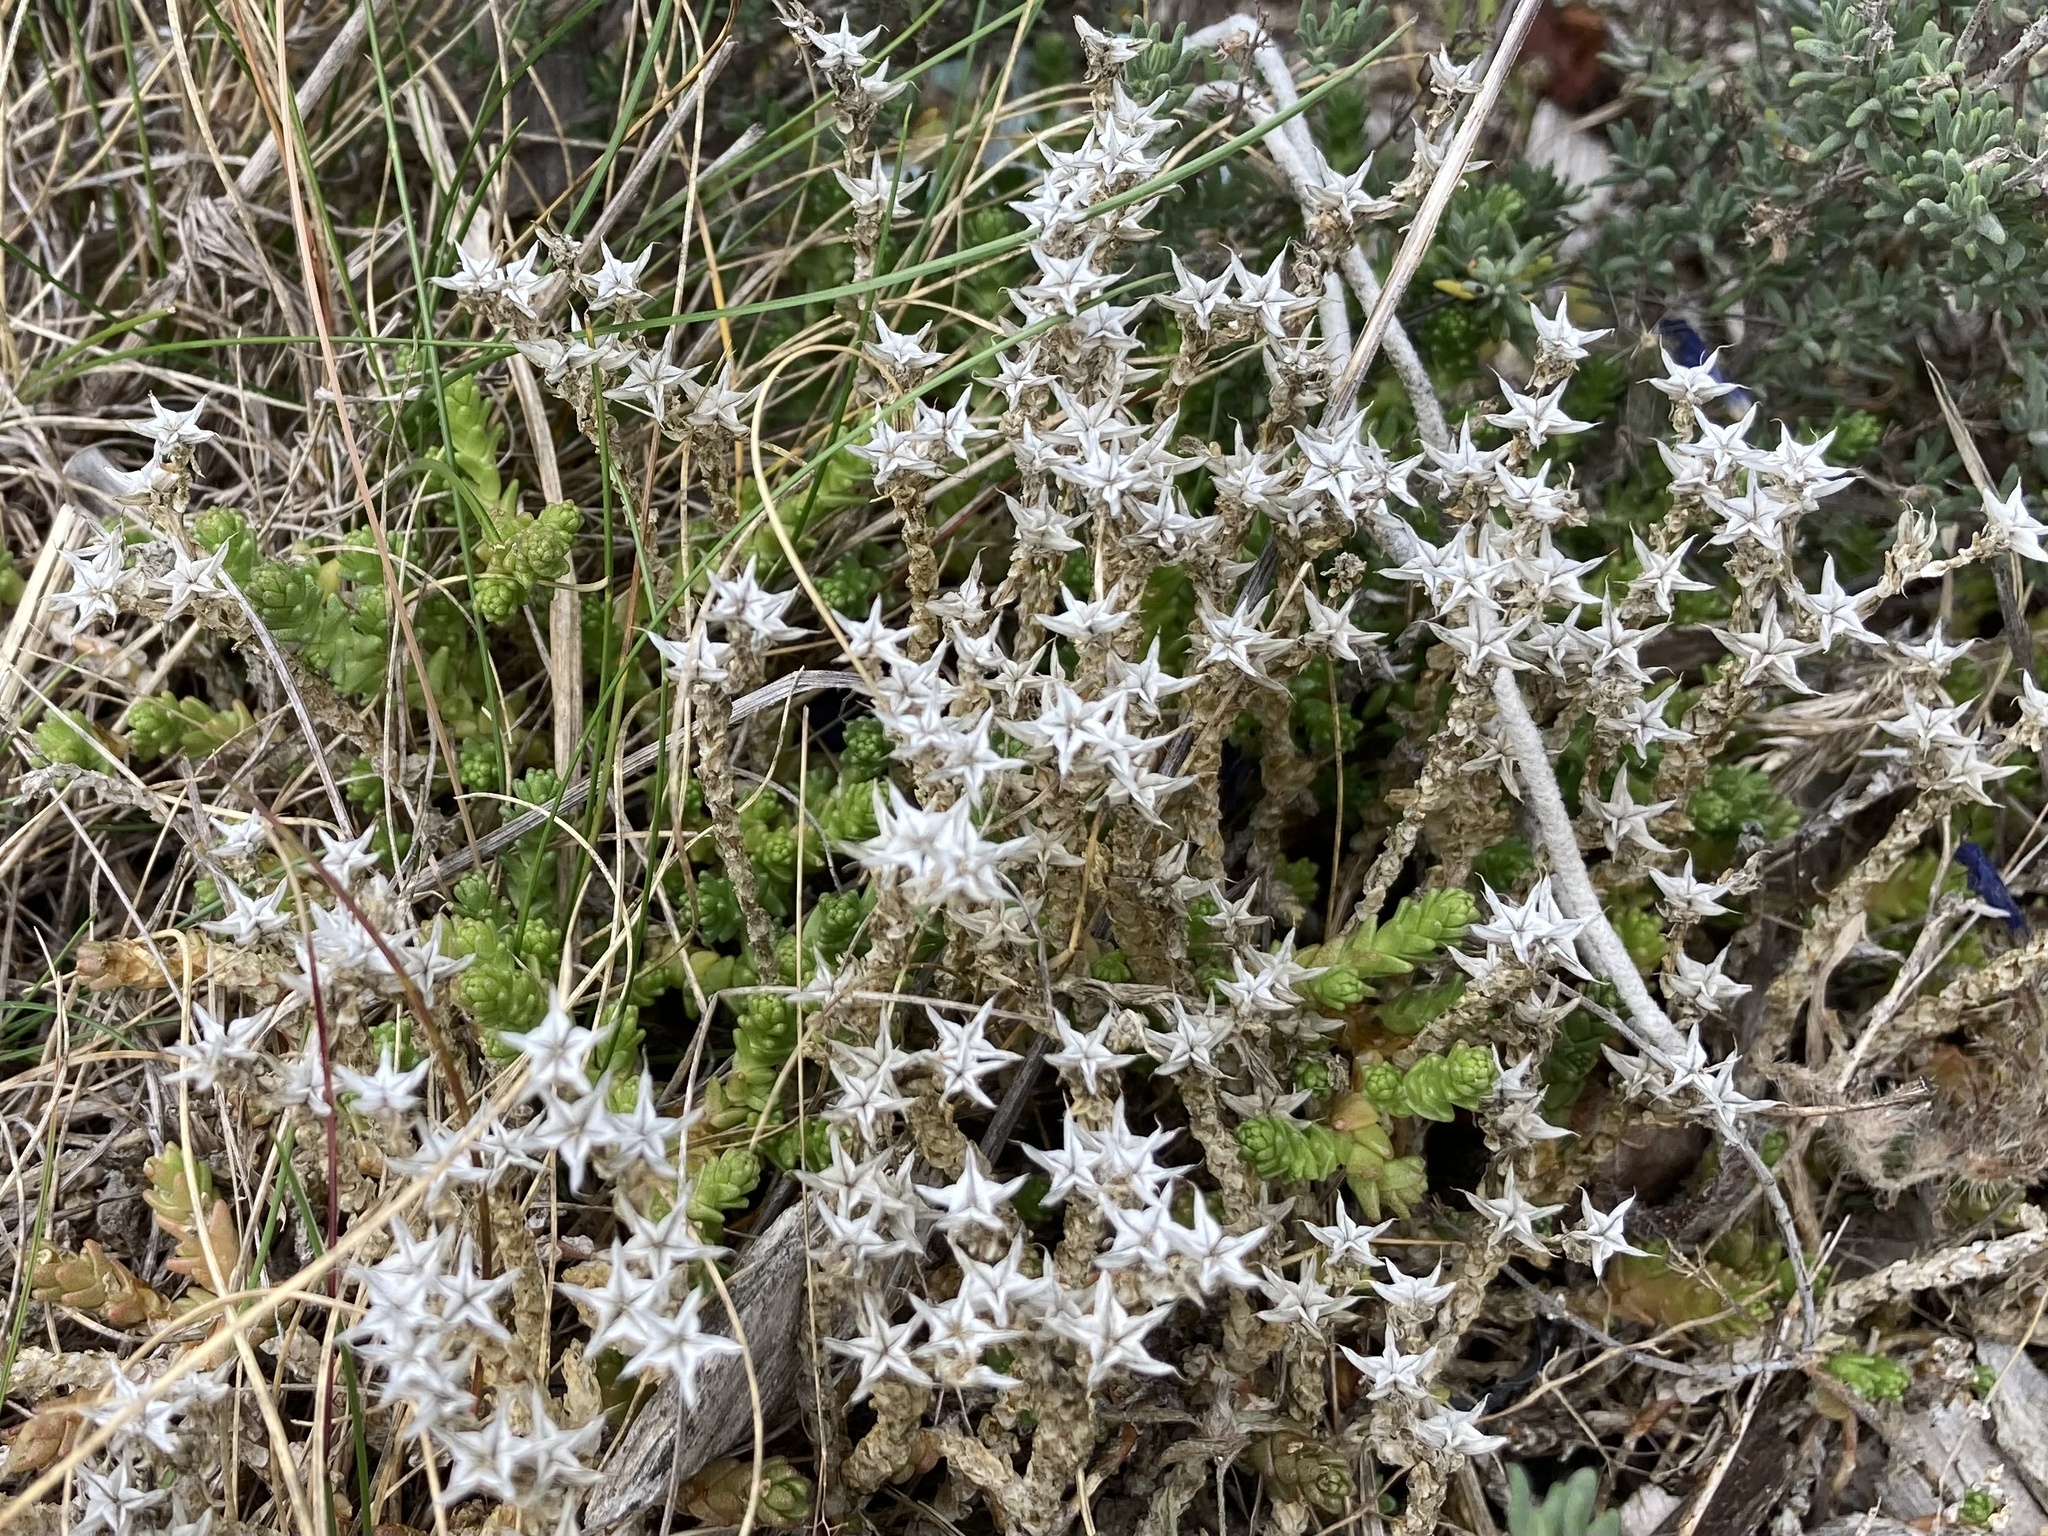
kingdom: Plantae
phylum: Tracheophyta
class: Magnoliopsida
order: Saxifragales
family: Crassulaceae
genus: Sedum
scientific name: Sedum acre
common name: Biting stonecrop
